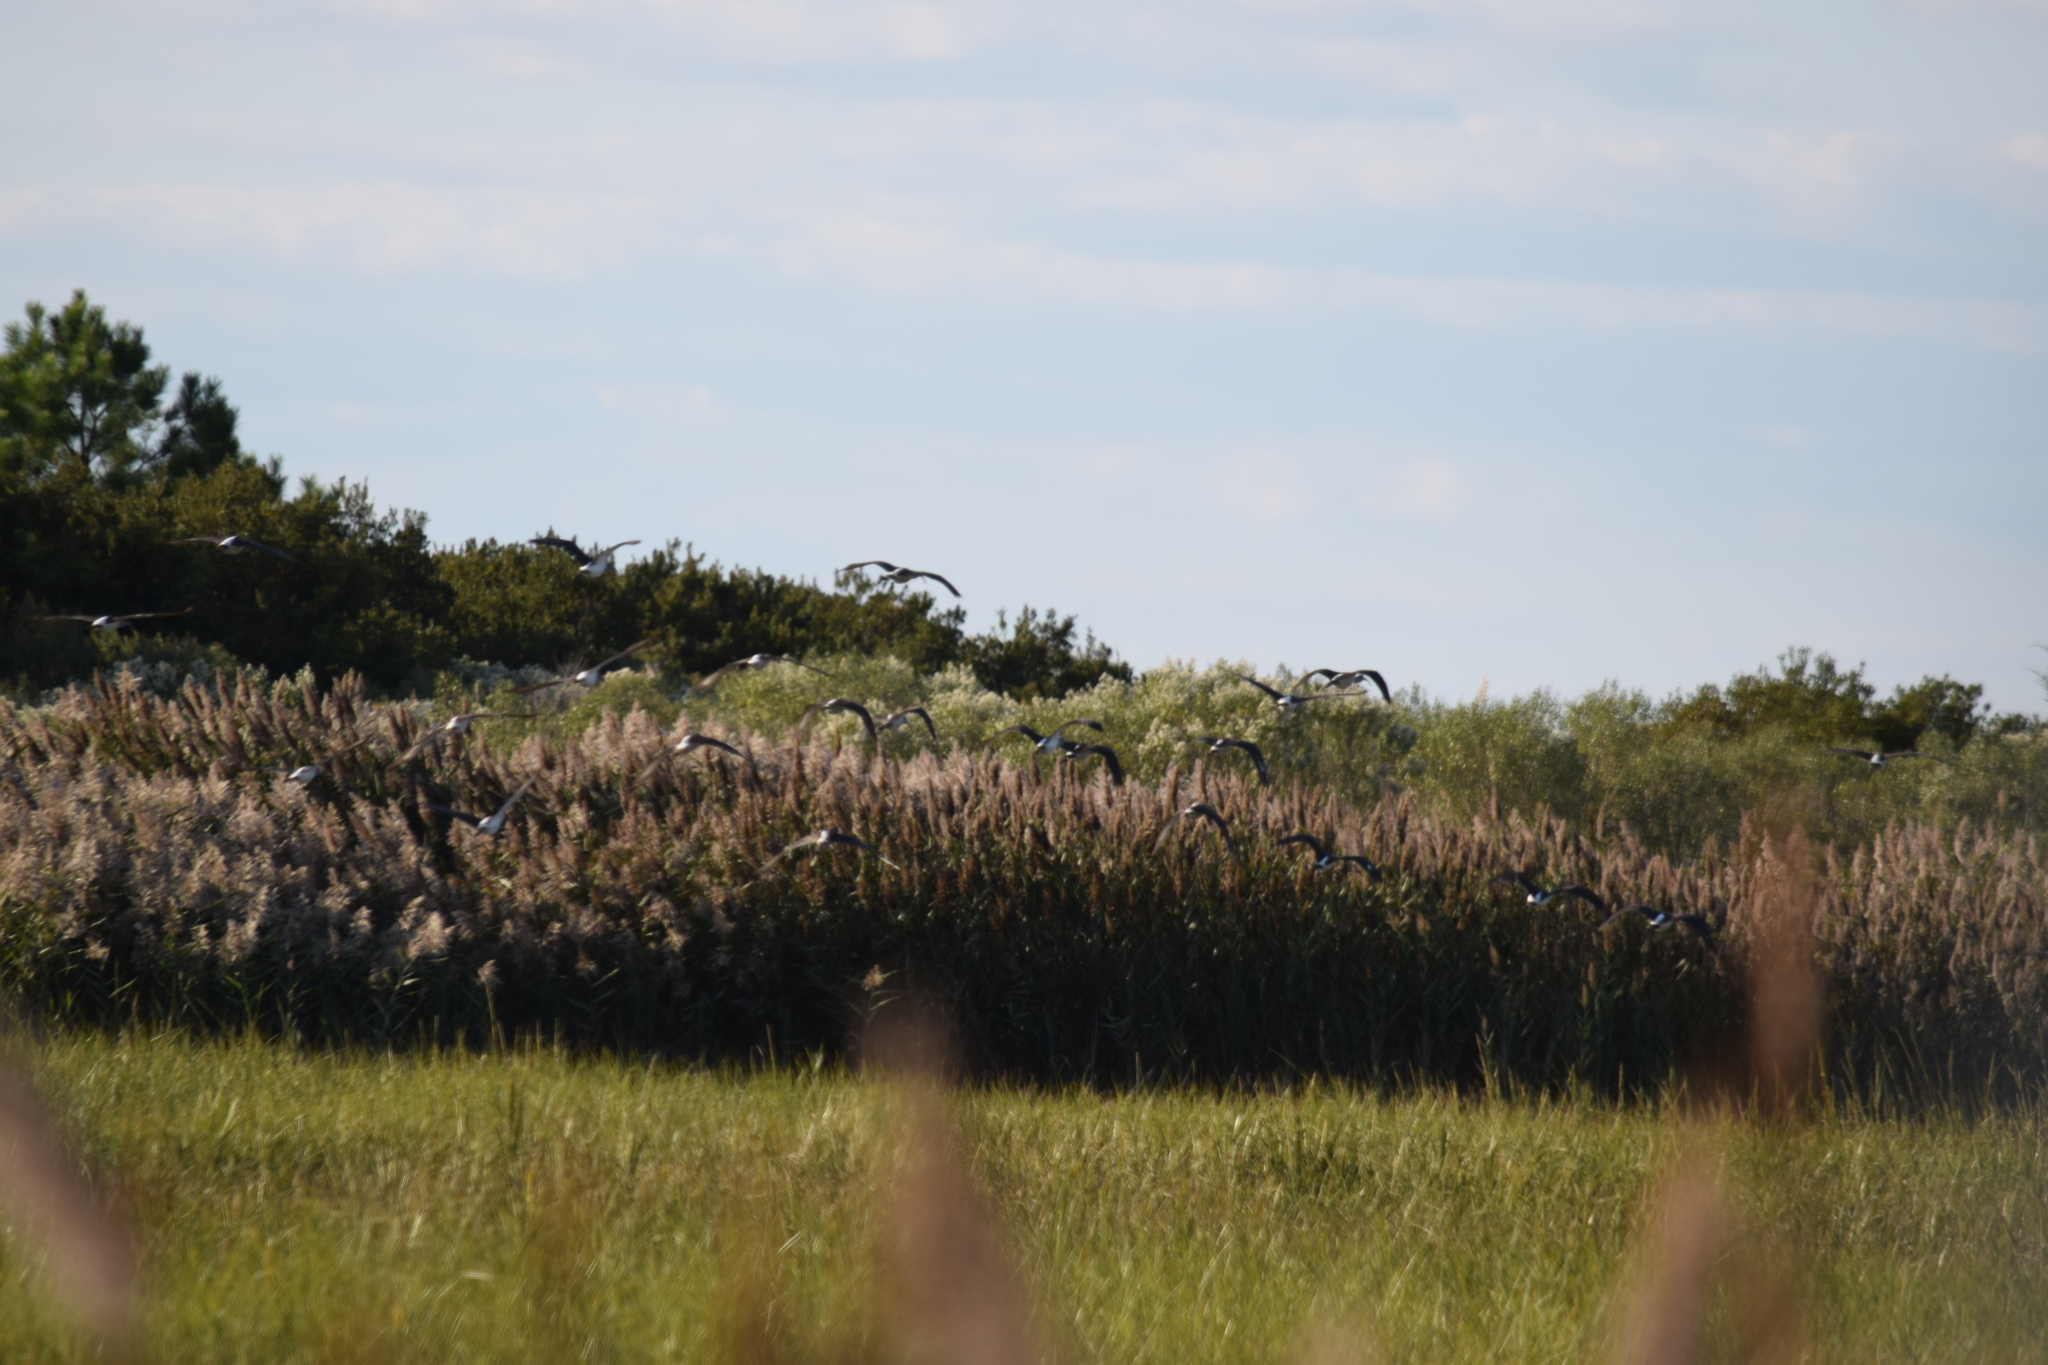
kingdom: Animalia
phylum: Chordata
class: Aves
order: Pelecaniformes
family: Threskiornithidae
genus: Eudocimus
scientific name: Eudocimus albus
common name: White ibis
